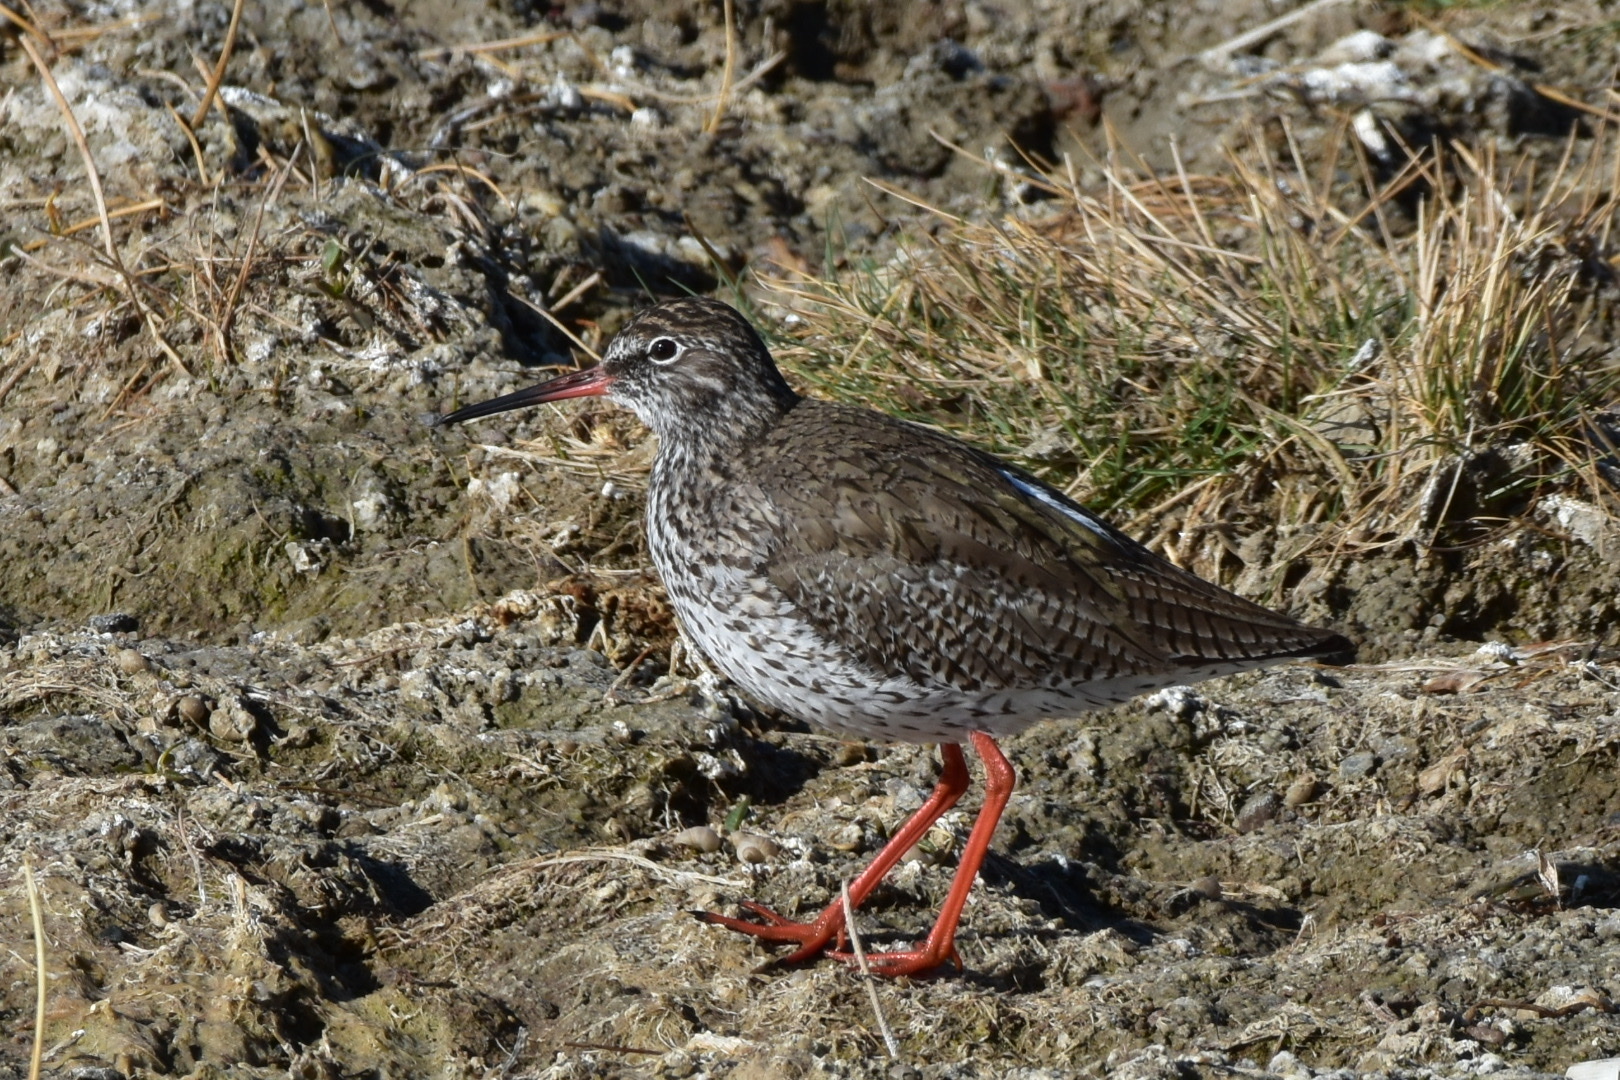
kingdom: Animalia
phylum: Chordata
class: Aves
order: Charadriiformes
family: Scolopacidae
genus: Tringa
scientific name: Tringa totanus
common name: Common redshank
